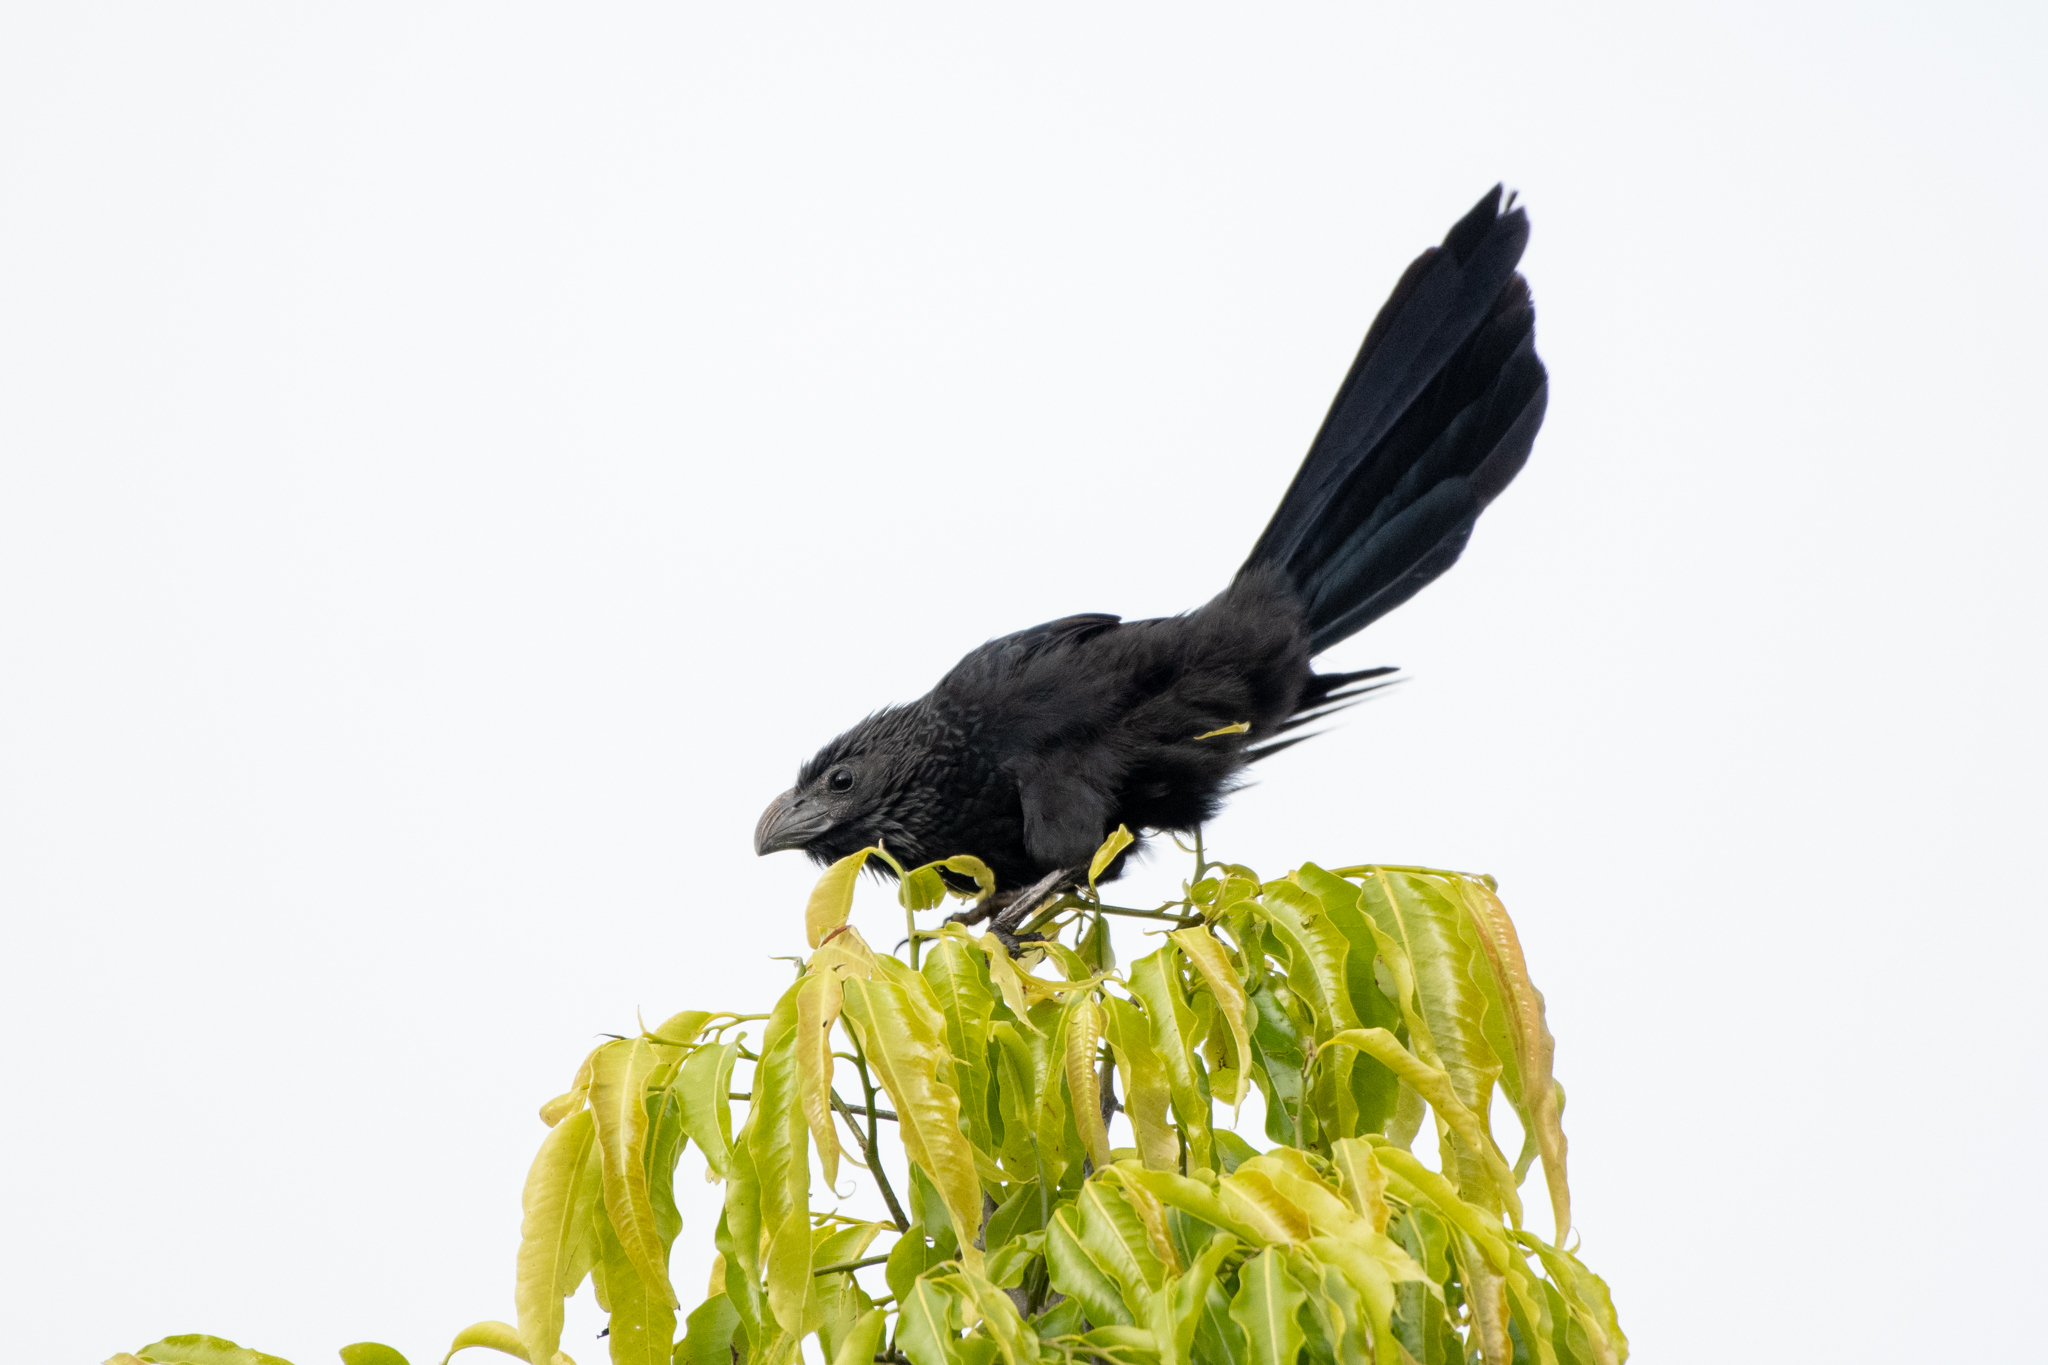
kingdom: Animalia
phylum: Chordata
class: Aves
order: Cuculiformes
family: Cuculidae
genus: Crotophaga
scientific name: Crotophaga sulcirostris
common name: Groove-billed ani
